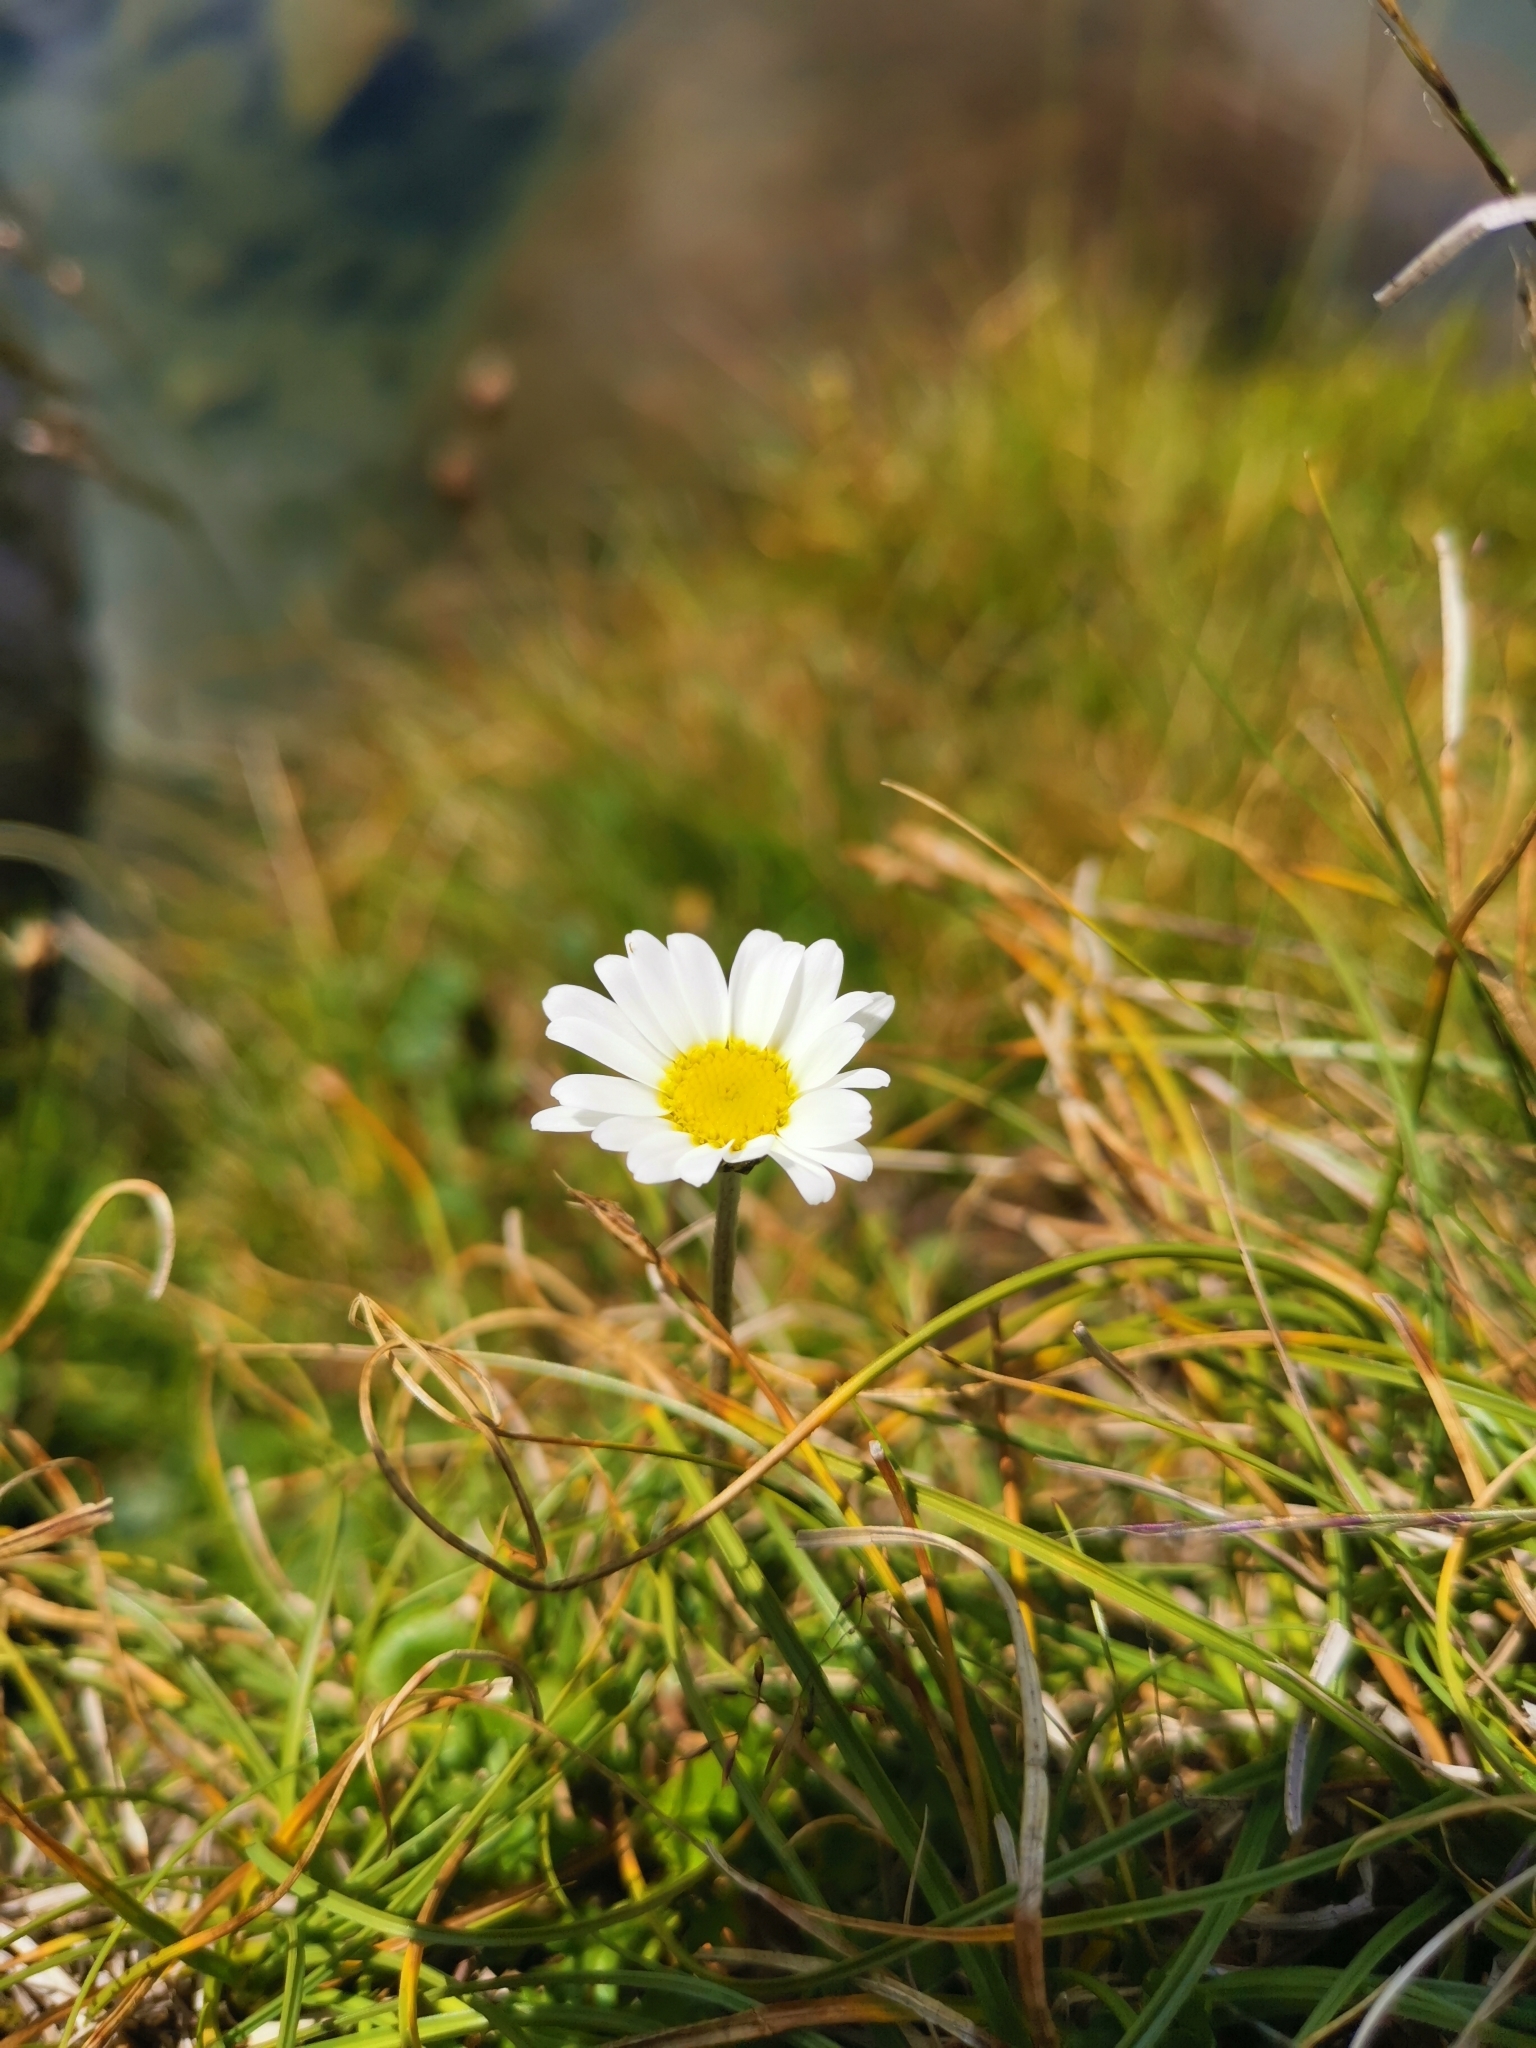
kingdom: Plantae
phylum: Tracheophyta
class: Magnoliopsida
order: Asterales
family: Asteraceae
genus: Leucanthemopsis
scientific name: Leucanthemopsis alpina
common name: Alpine moon daisy
